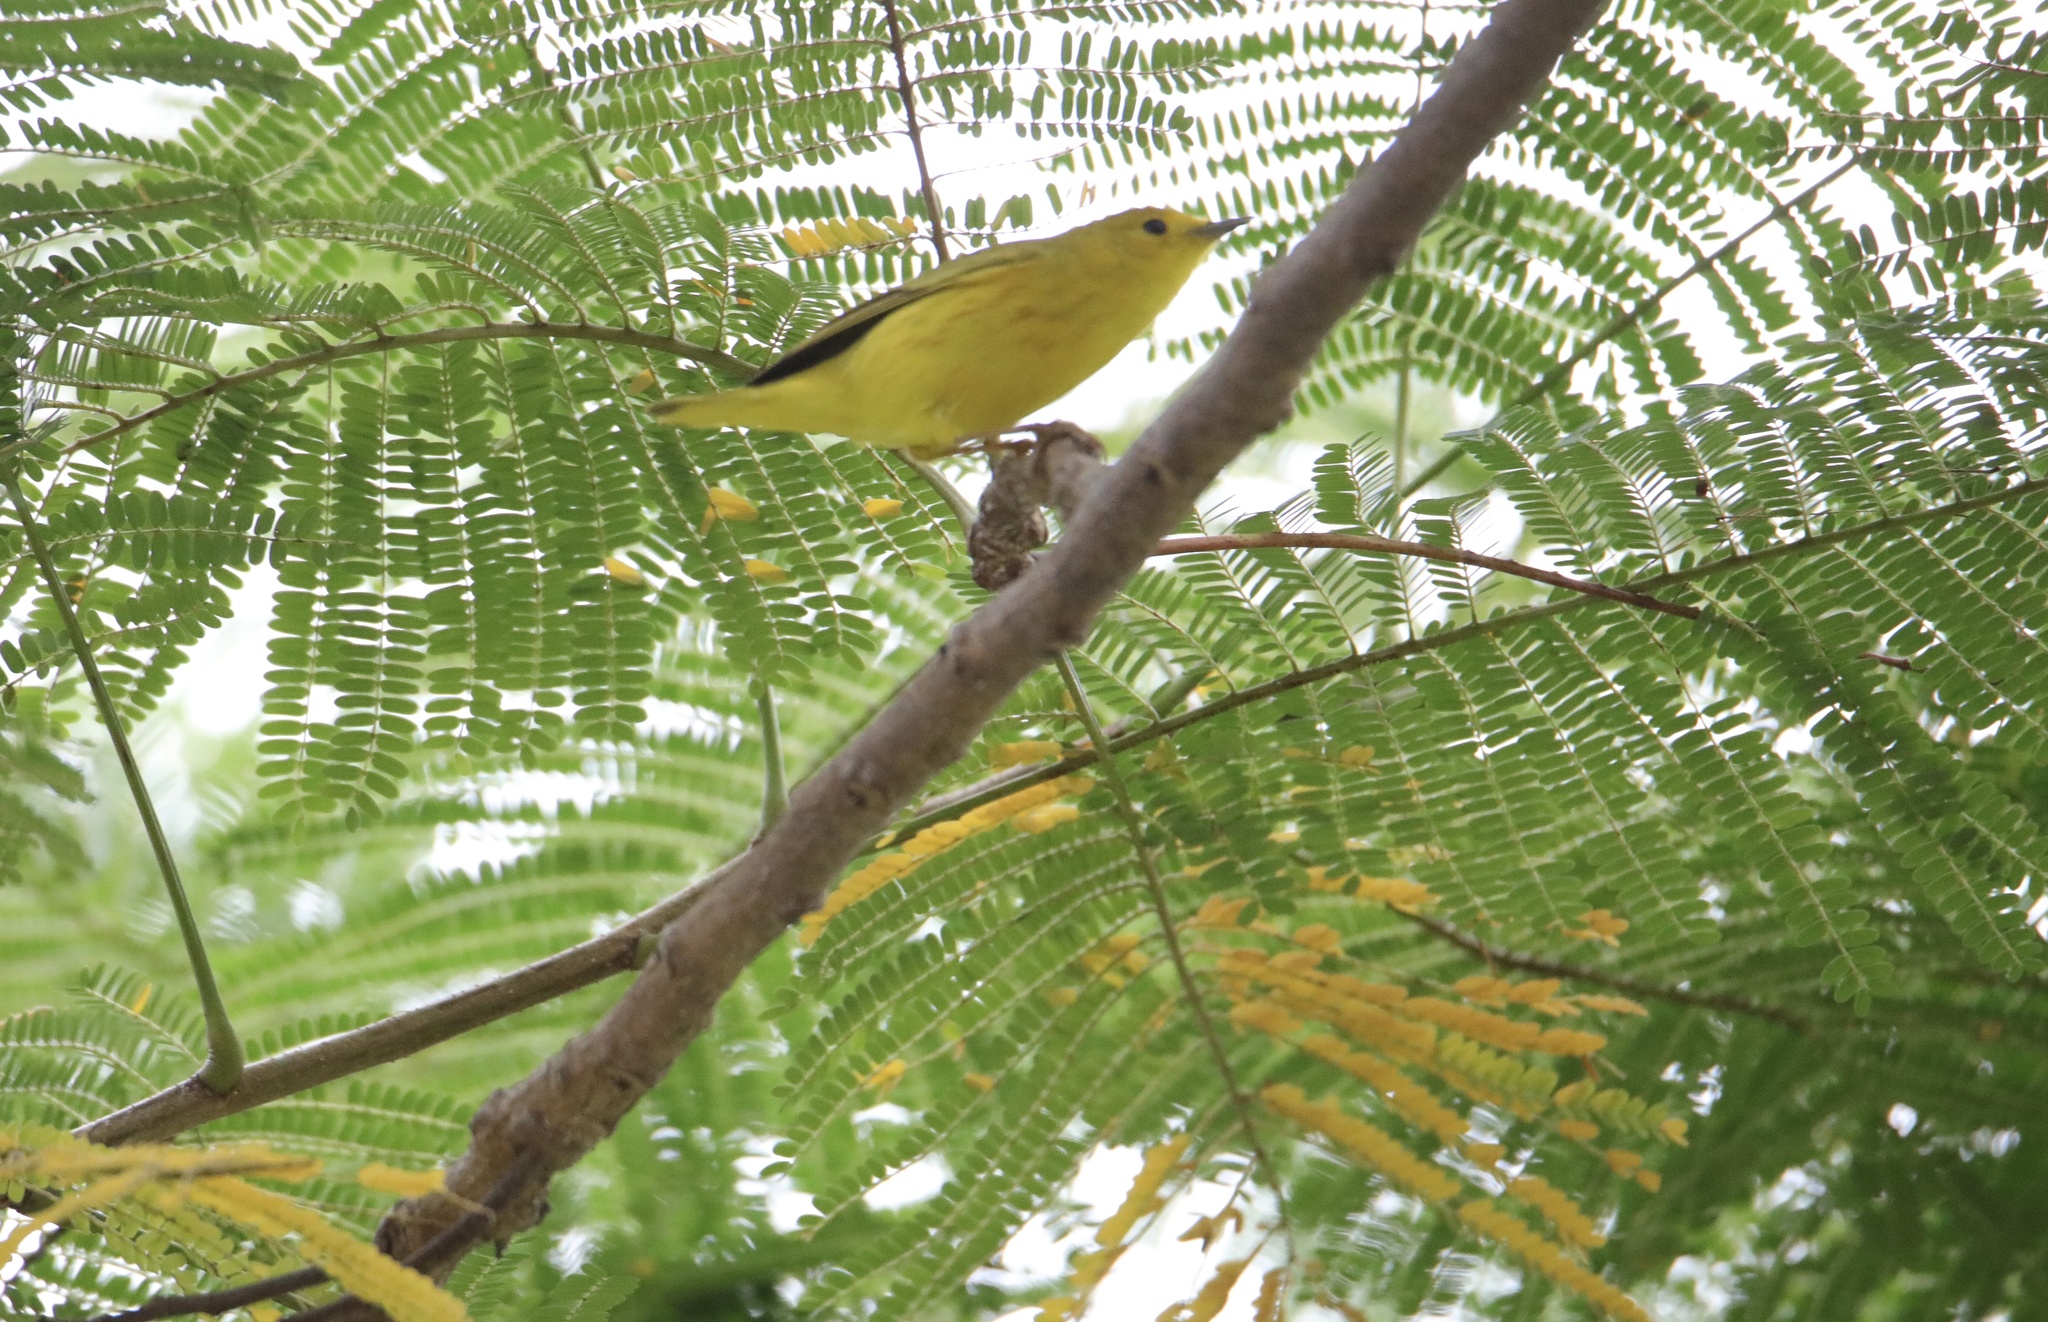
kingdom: Animalia
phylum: Chordata
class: Aves
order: Passeriformes
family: Parulidae
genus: Setophaga
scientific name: Setophaga petechia
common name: Yellow warbler
